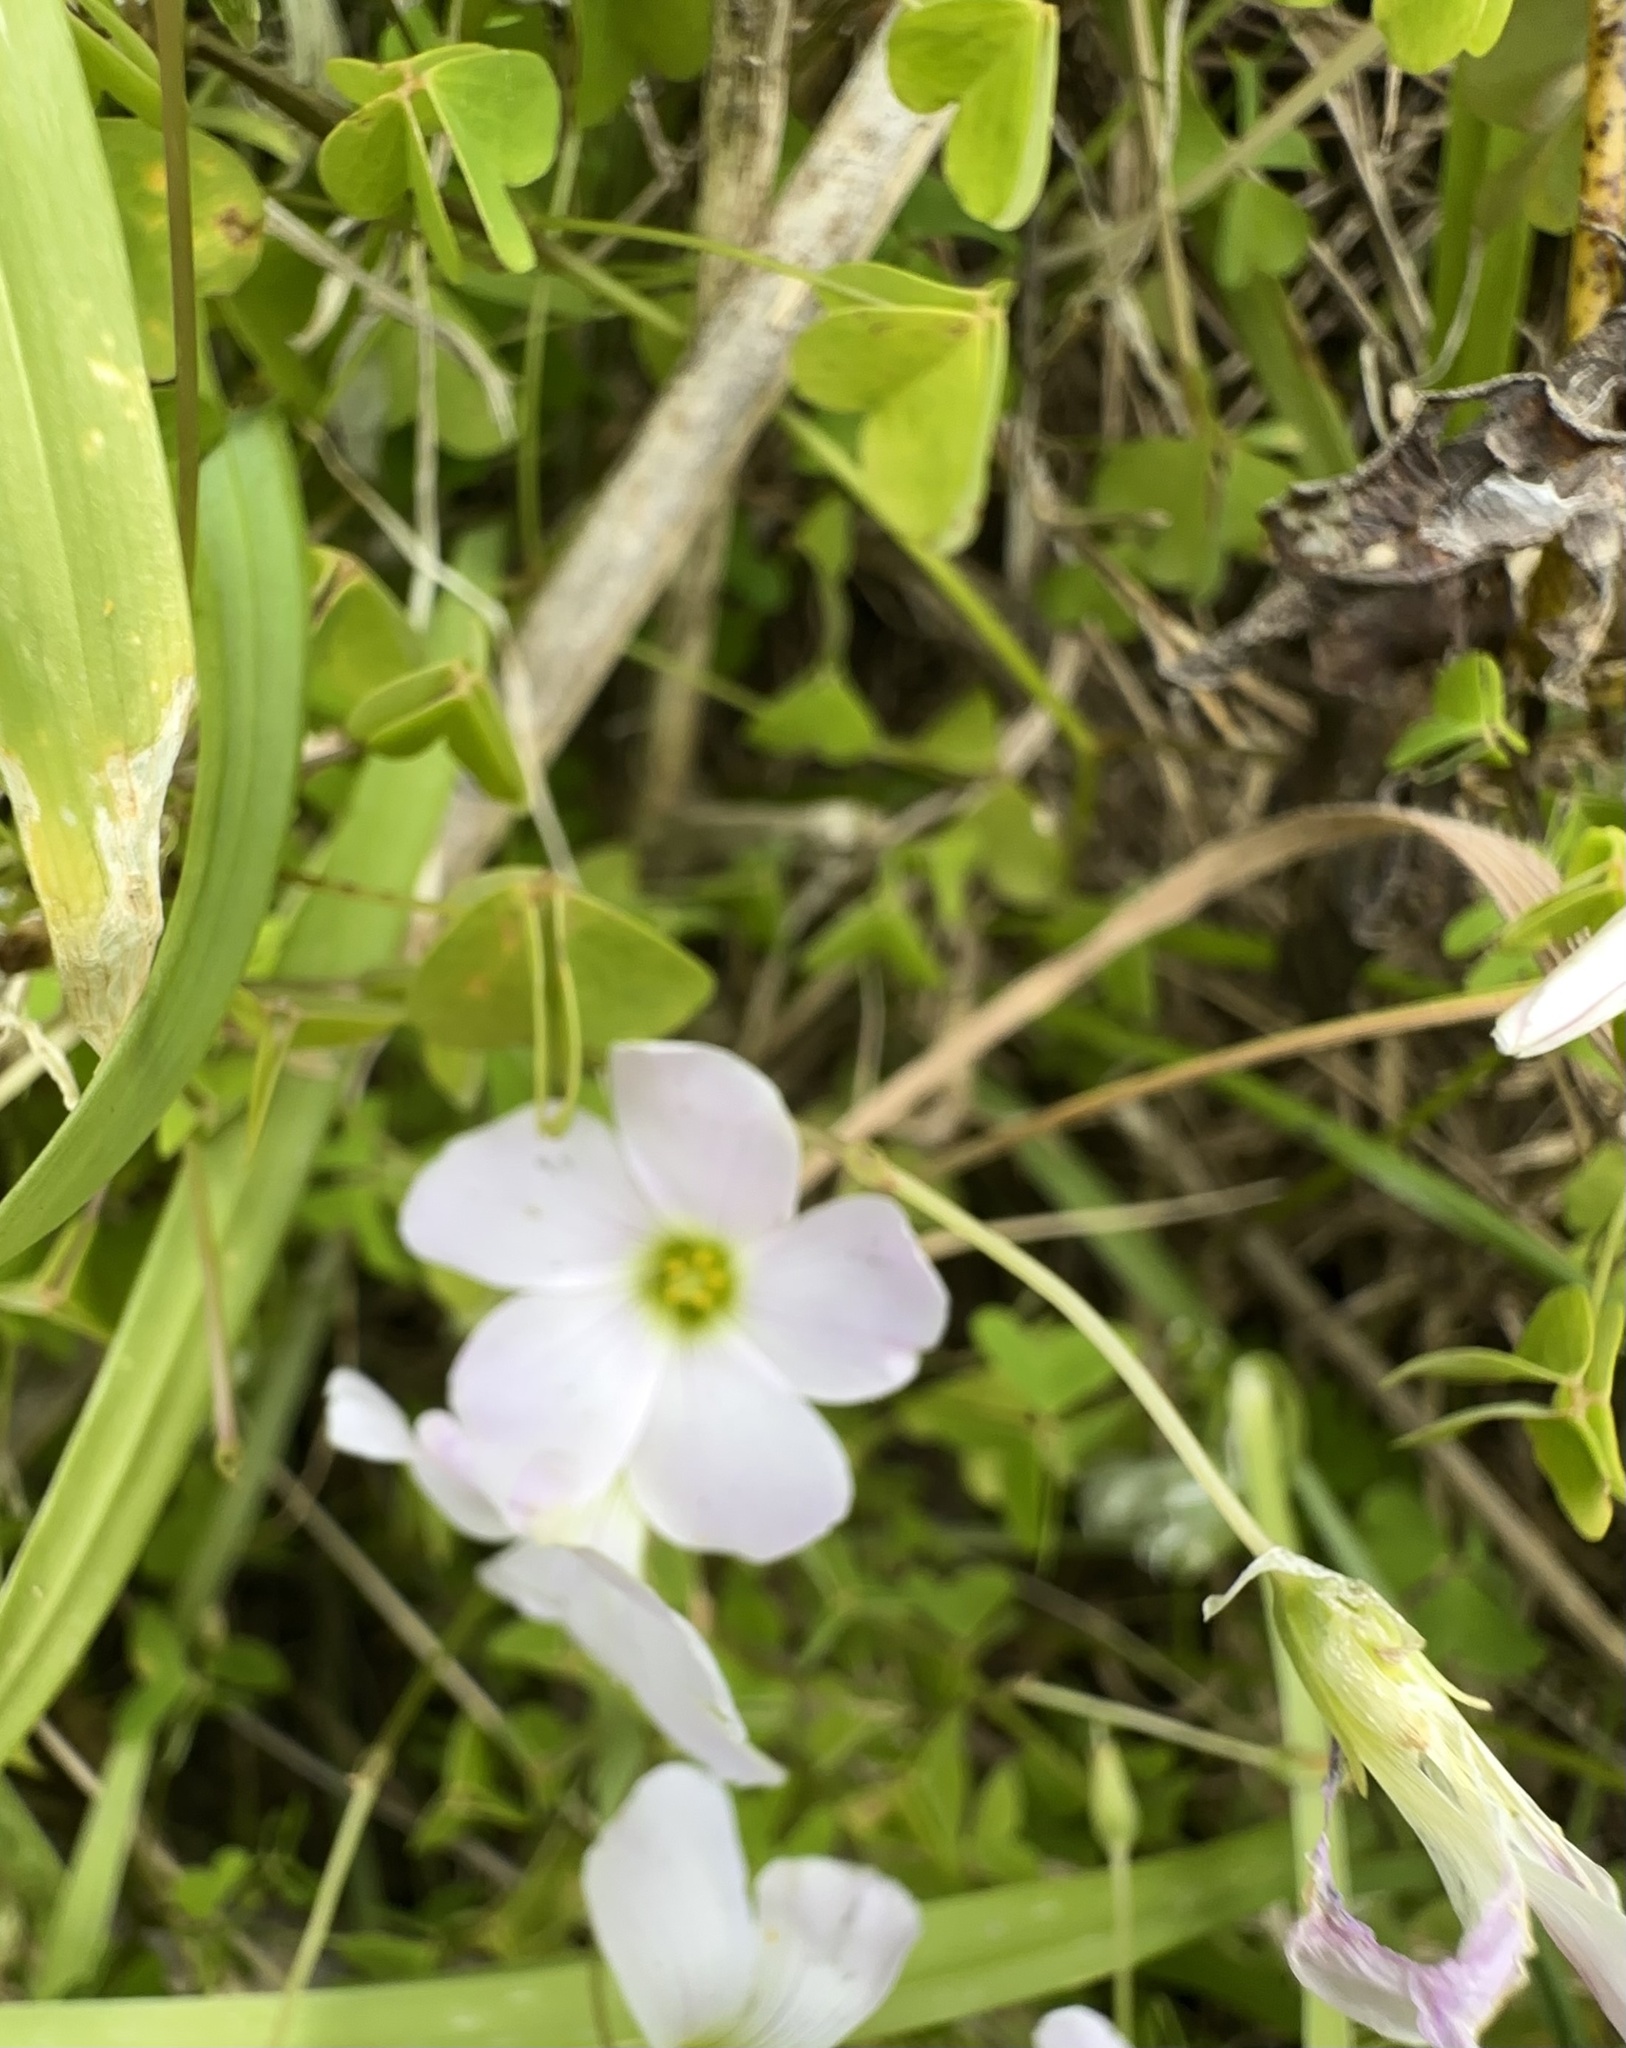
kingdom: Plantae
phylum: Tracheophyta
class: Magnoliopsida
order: Oxalidales
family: Oxalidaceae
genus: Oxalis
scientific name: Oxalis incarnata
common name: Pale pink-sorrel
